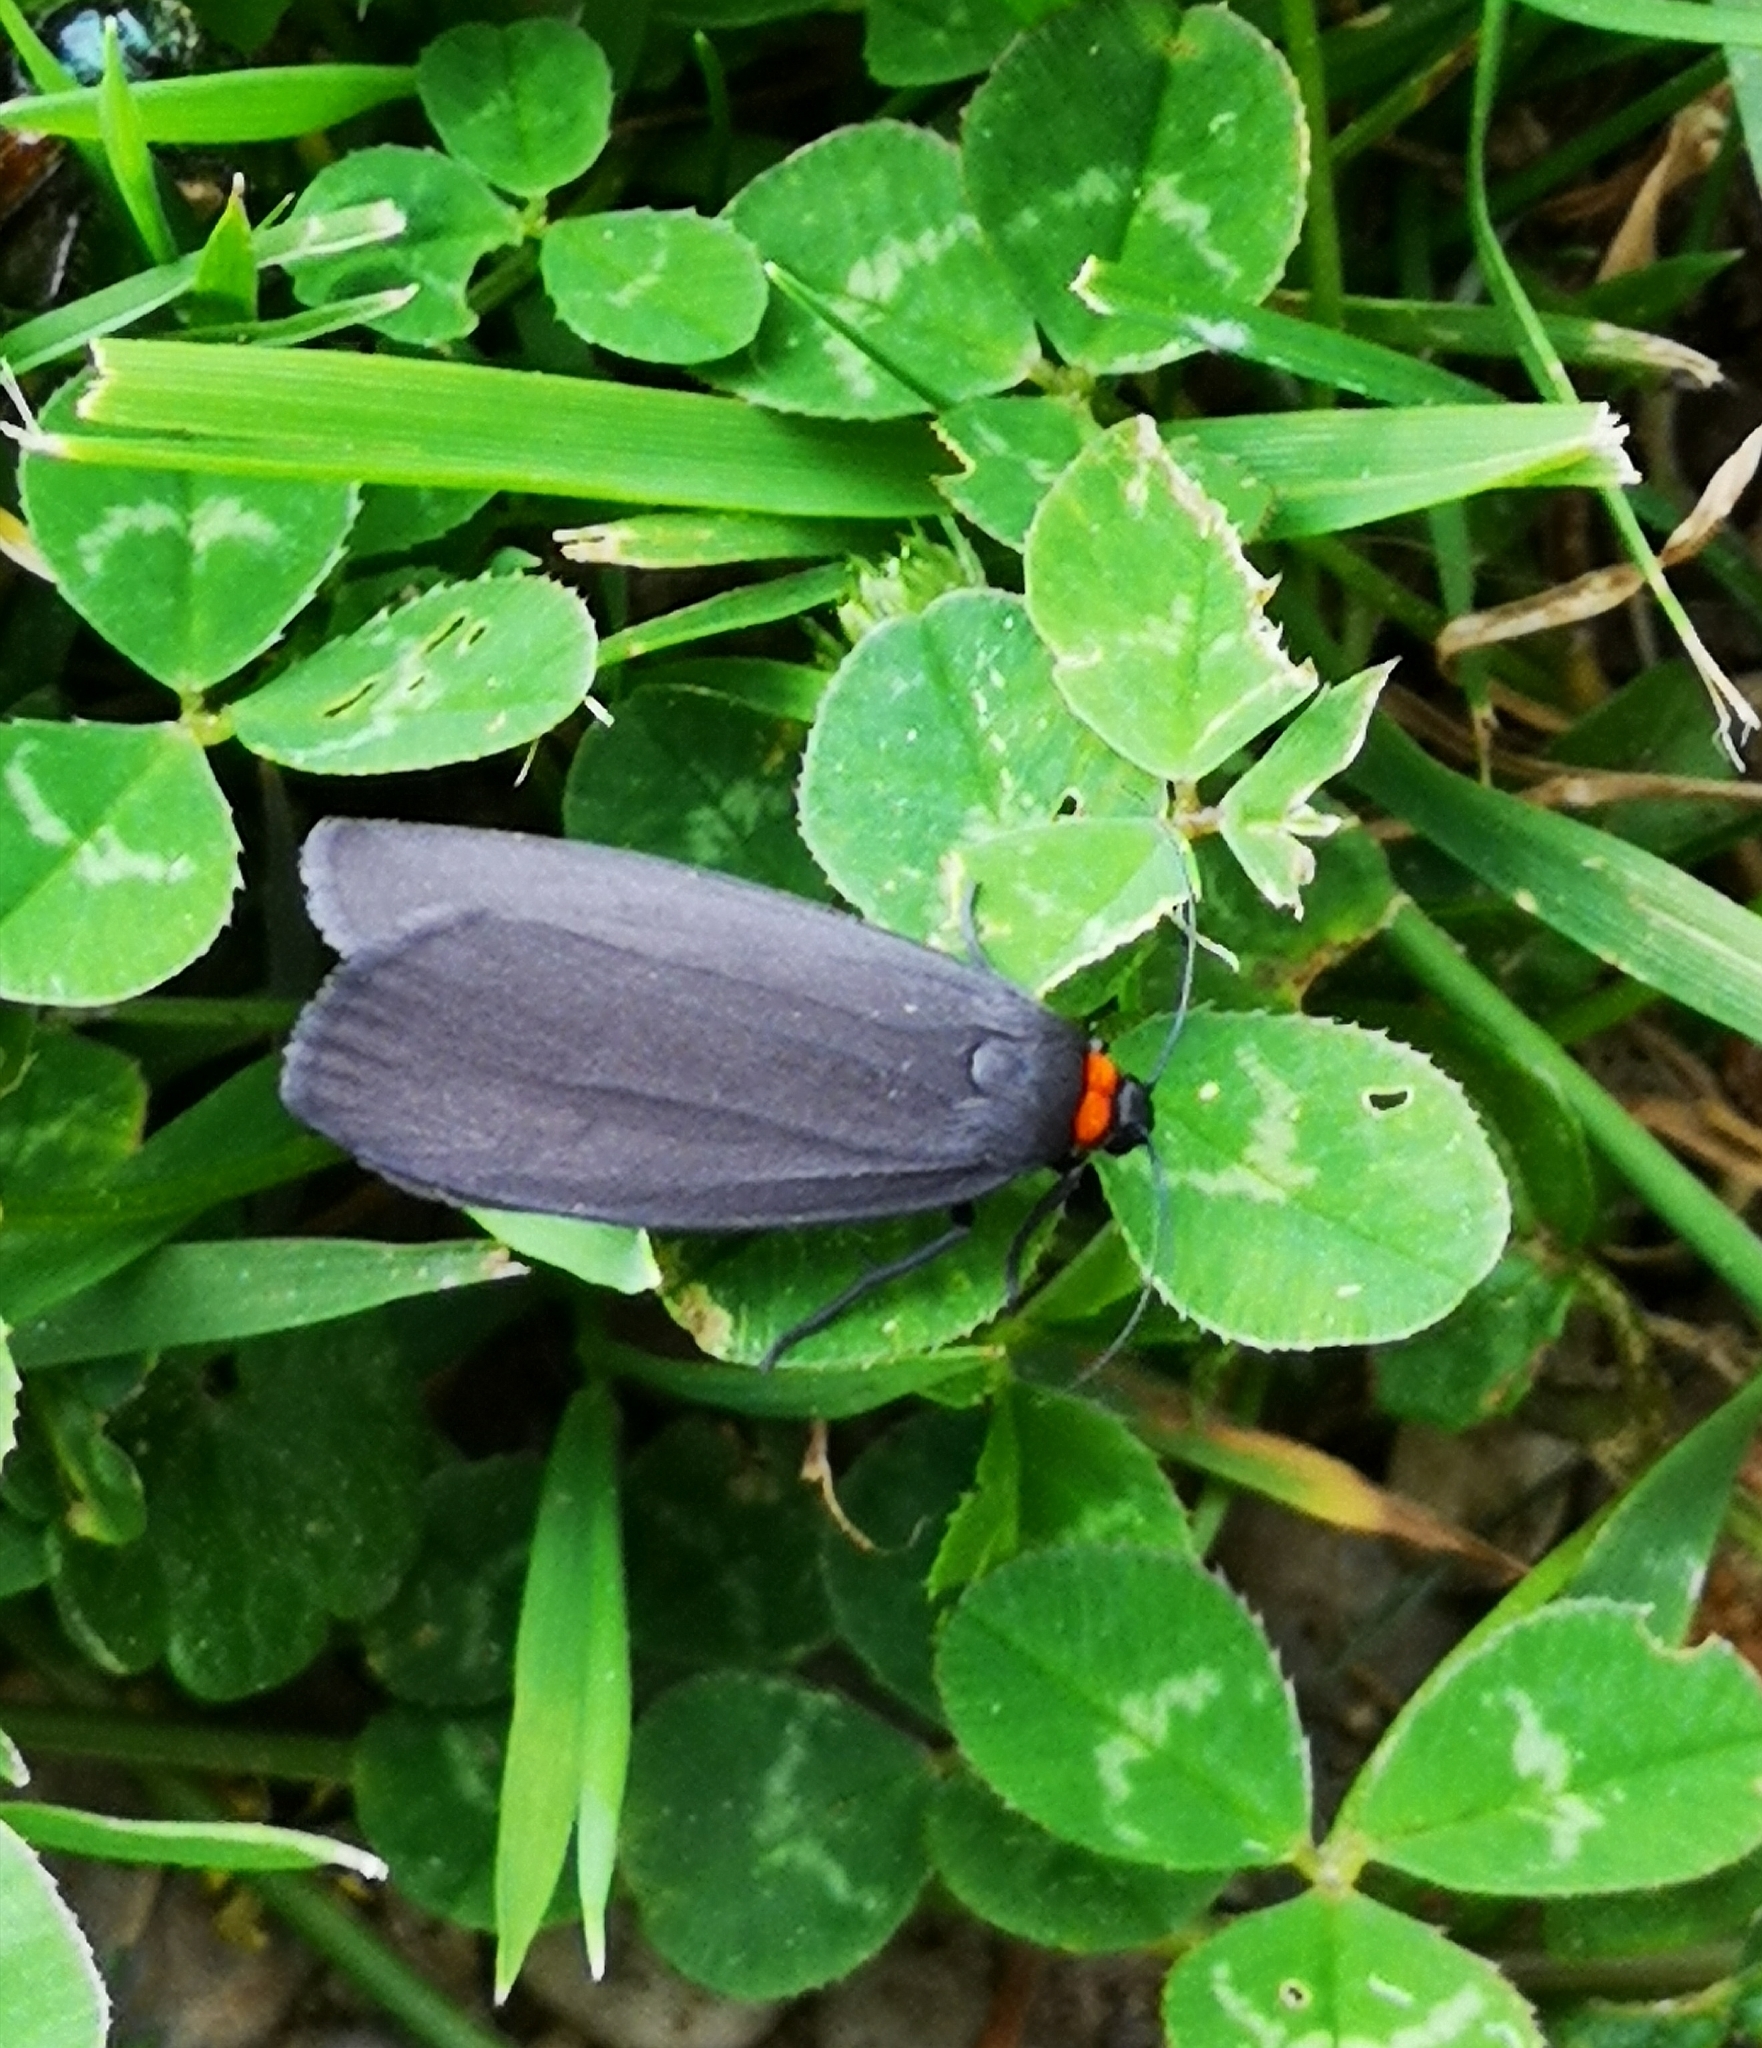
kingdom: Animalia
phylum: Arthropoda
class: Insecta
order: Lepidoptera
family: Erebidae
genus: Atolmis
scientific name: Atolmis rubricollis
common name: Red-necked footman
